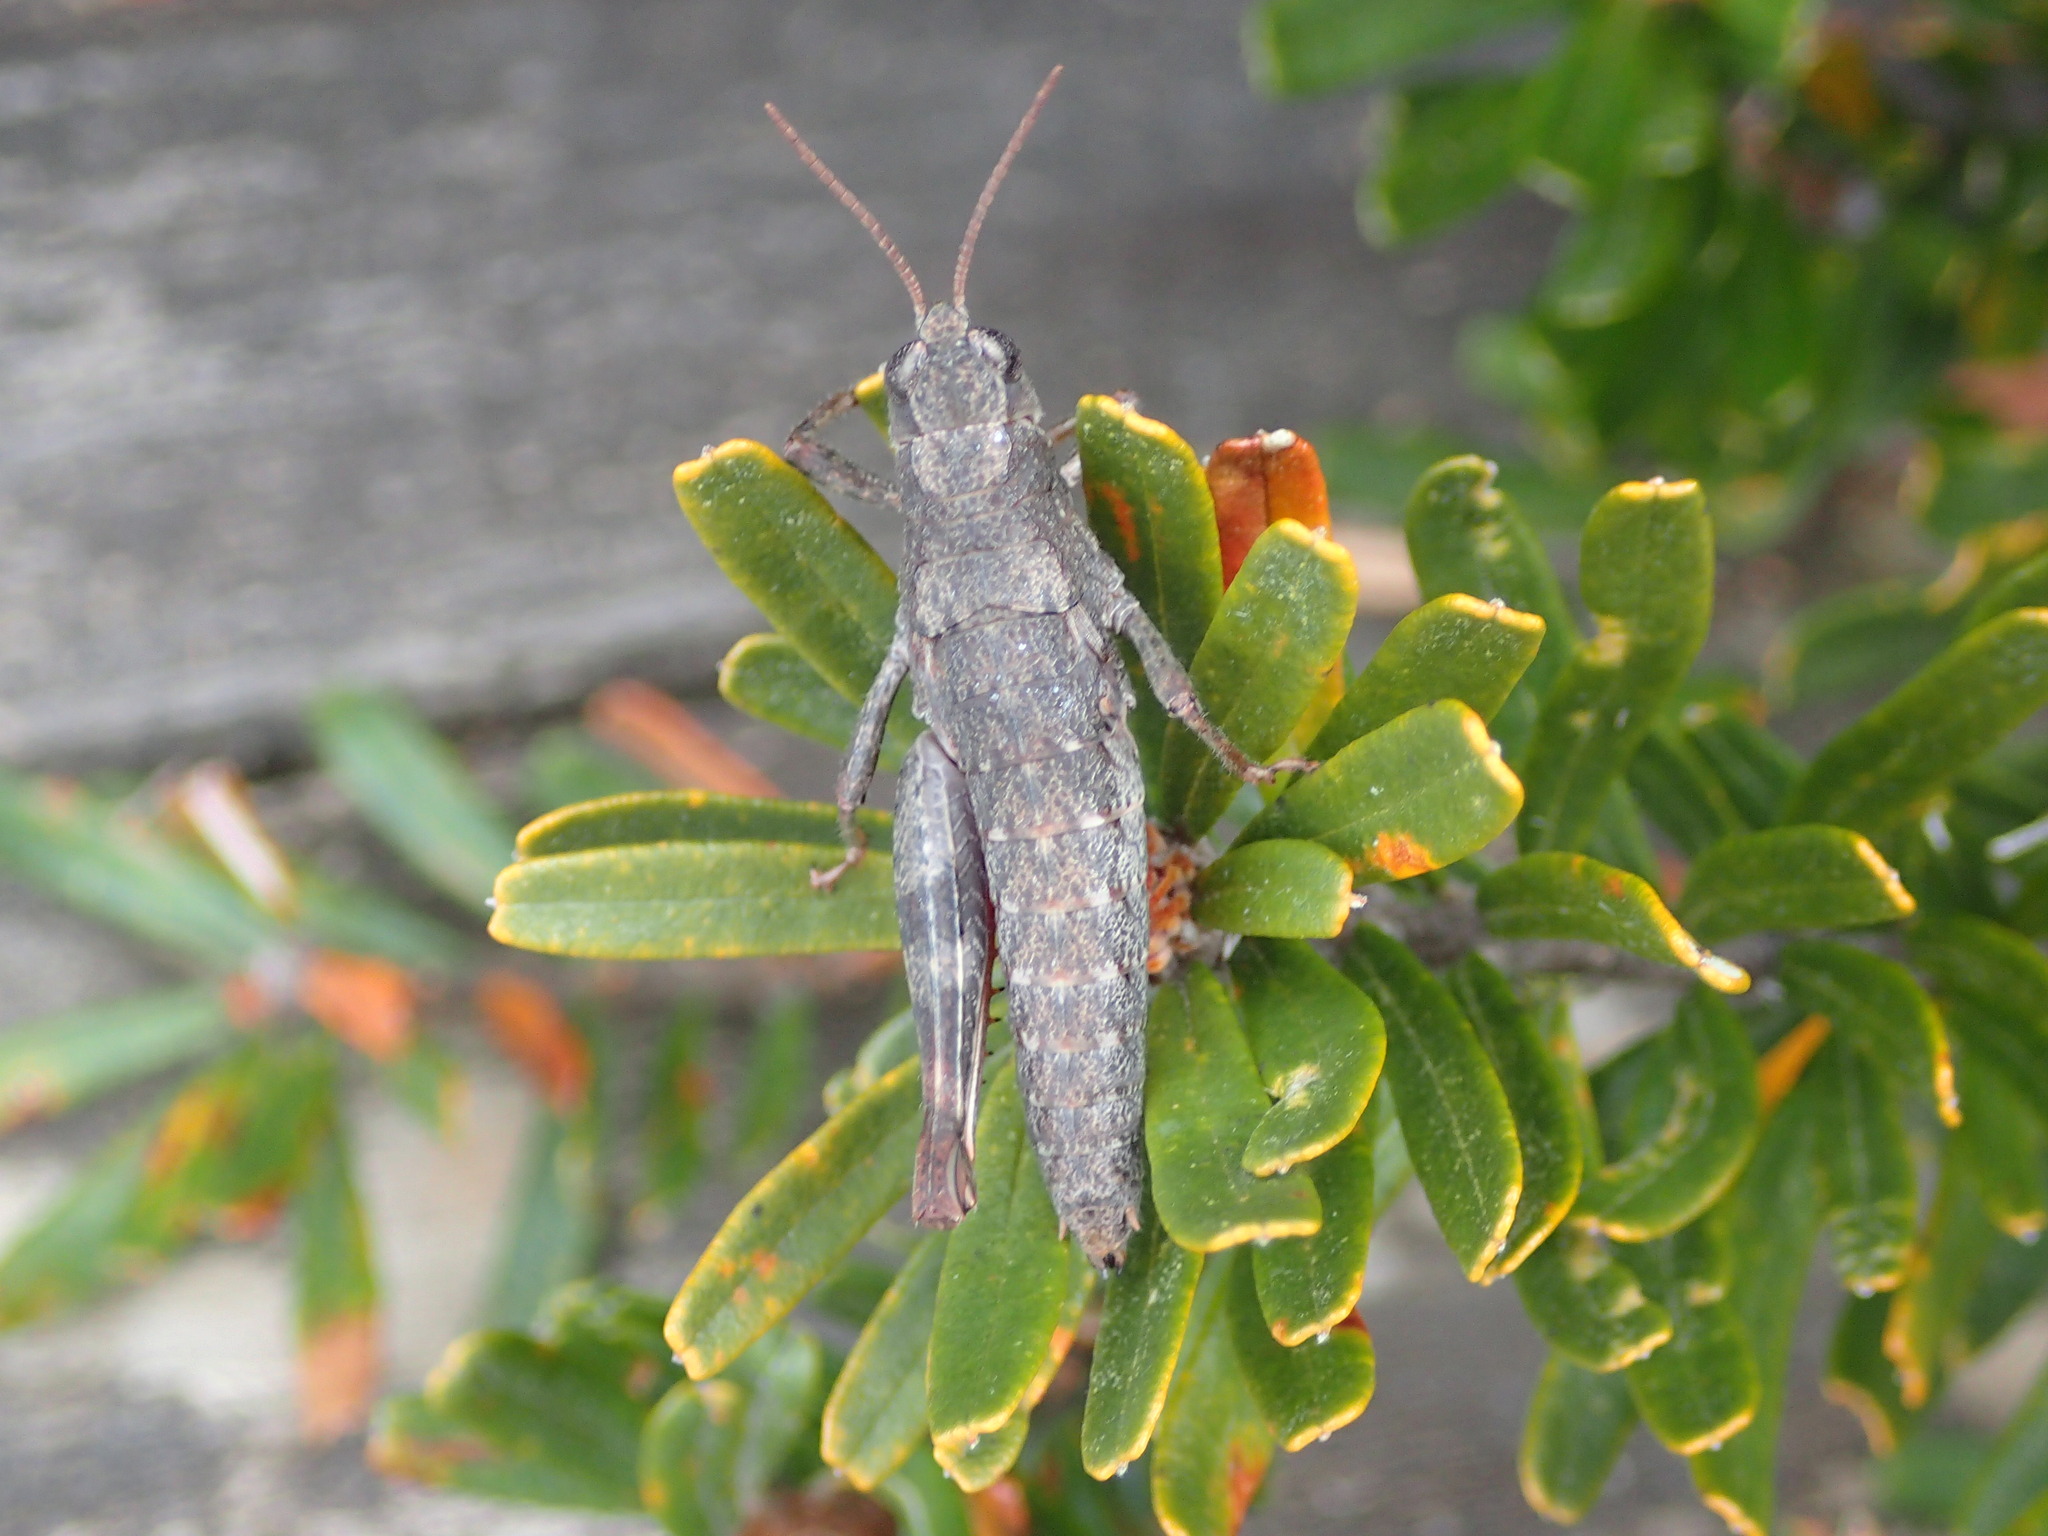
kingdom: Animalia
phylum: Arthropoda
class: Insecta
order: Orthoptera
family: Acrididae
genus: Tasmaniacris
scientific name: Tasmaniacris tasmaniensis
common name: Tasmanian grasshopper
